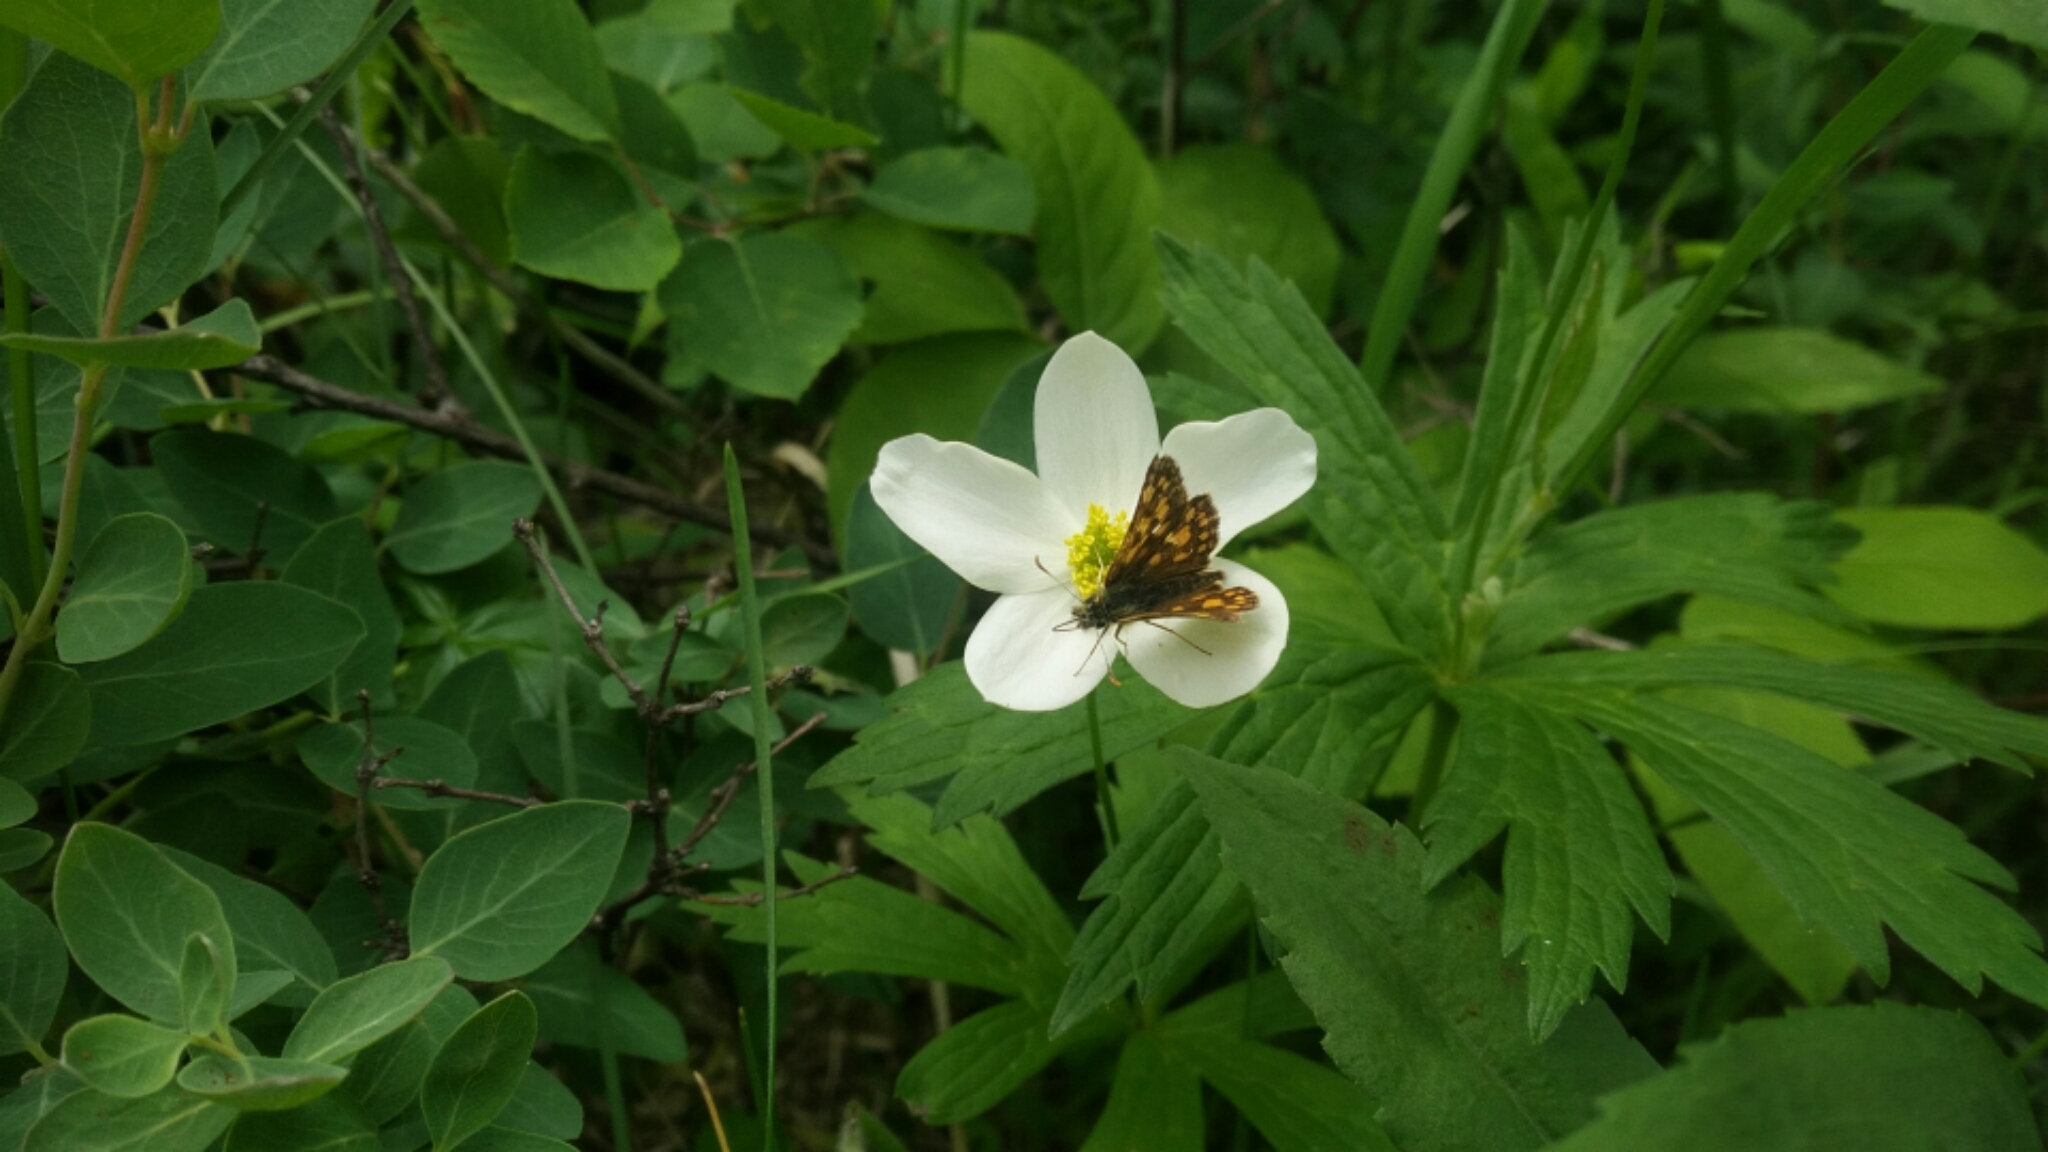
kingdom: Animalia
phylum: Arthropoda
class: Insecta
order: Lepidoptera
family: Hesperiidae
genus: Carterocephalus
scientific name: Carterocephalus mandan
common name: Arctic skipperling
